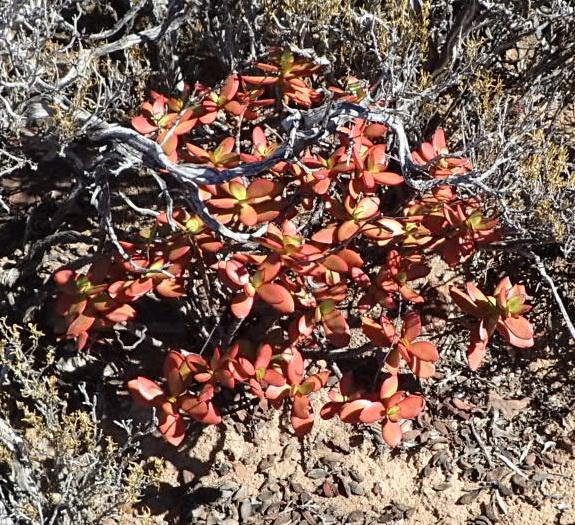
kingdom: Plantae
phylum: Tracheophyta
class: Magnoliopsida
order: Saxifragales
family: Crassulaceae
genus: Crassula
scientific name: Crassula cultrata
